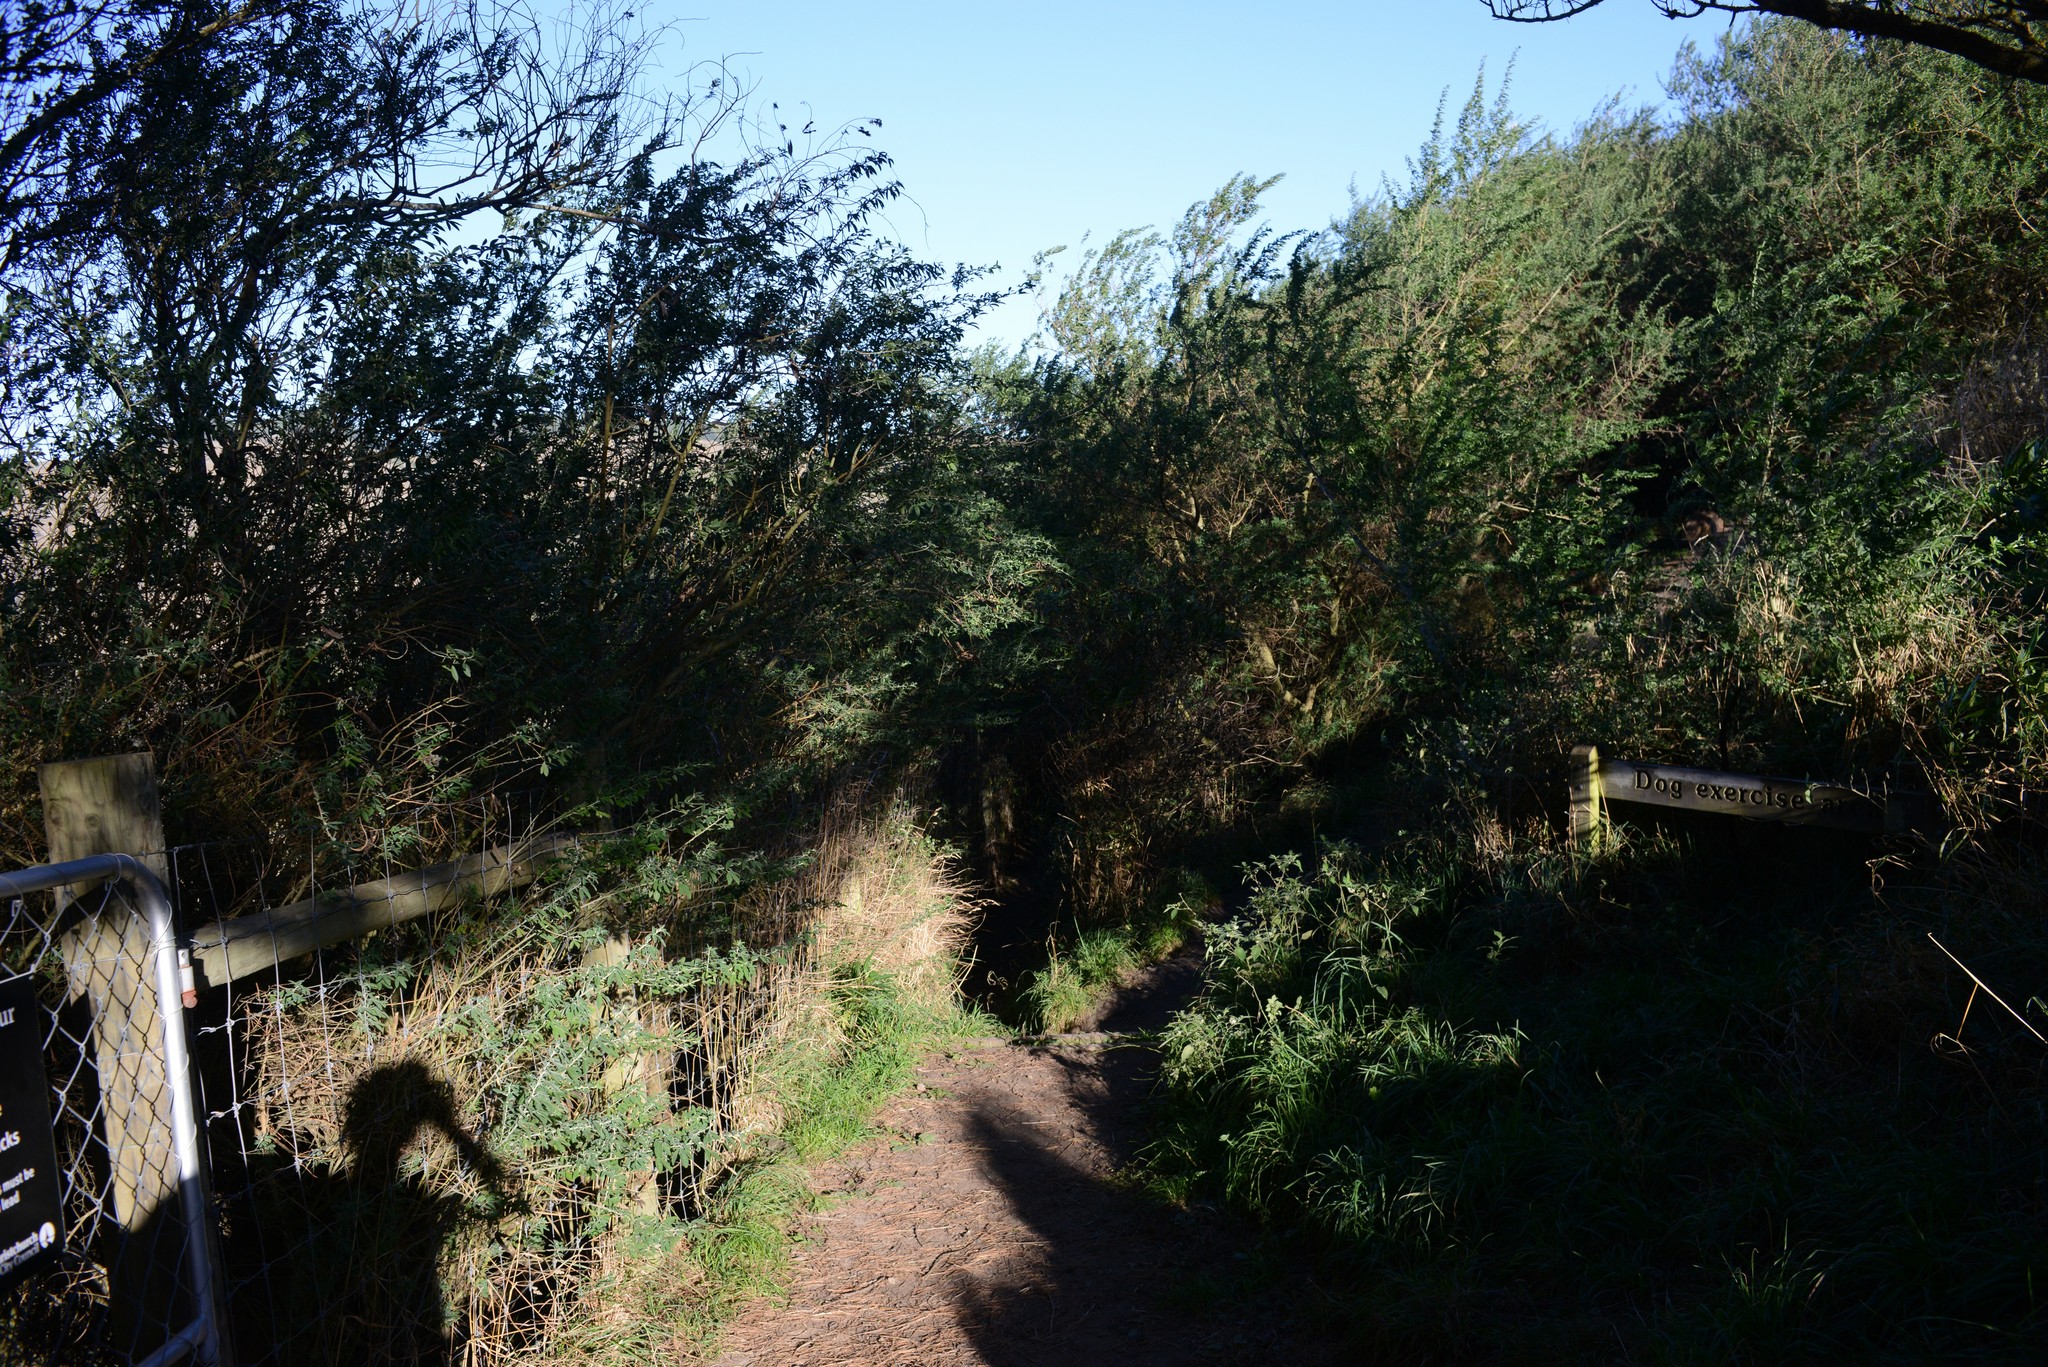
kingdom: Plantae
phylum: Tracheophyta
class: Magnoliopsida
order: Fabales
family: Fabaceae
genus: Chamaecytisus
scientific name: Chamaecytisus prolifer
